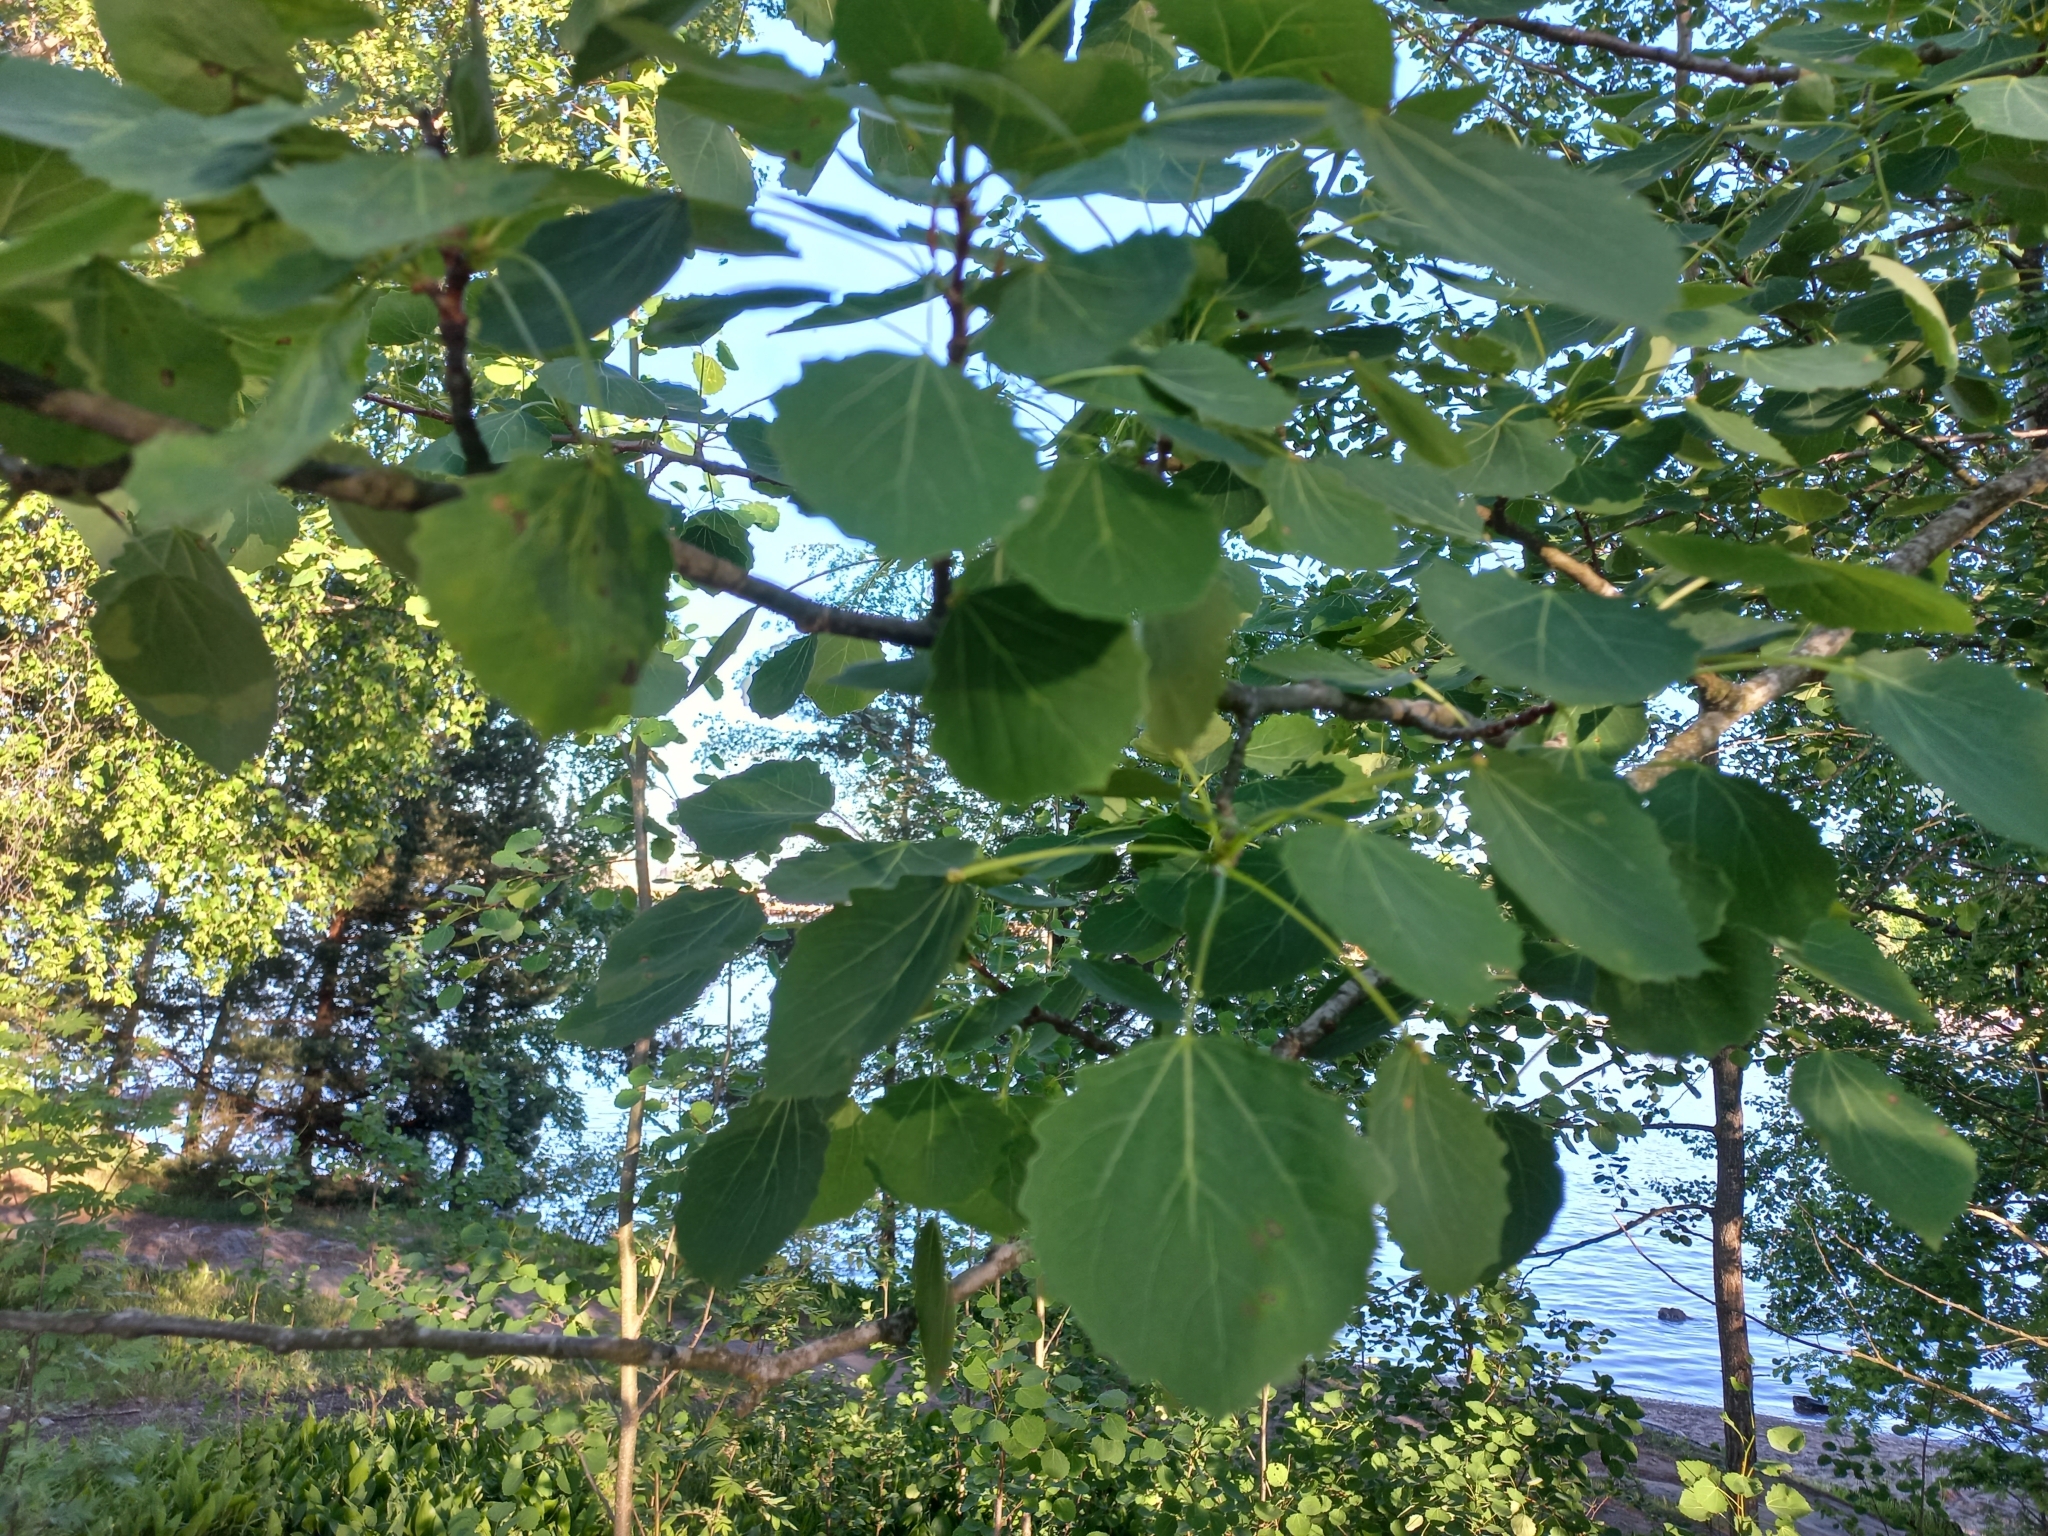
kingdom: Plantae
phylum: Tracheophyta
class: Magnoliopsida
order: Malpighiales
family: Salicaceae
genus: Populus
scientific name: Populus tremula
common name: European aspen
